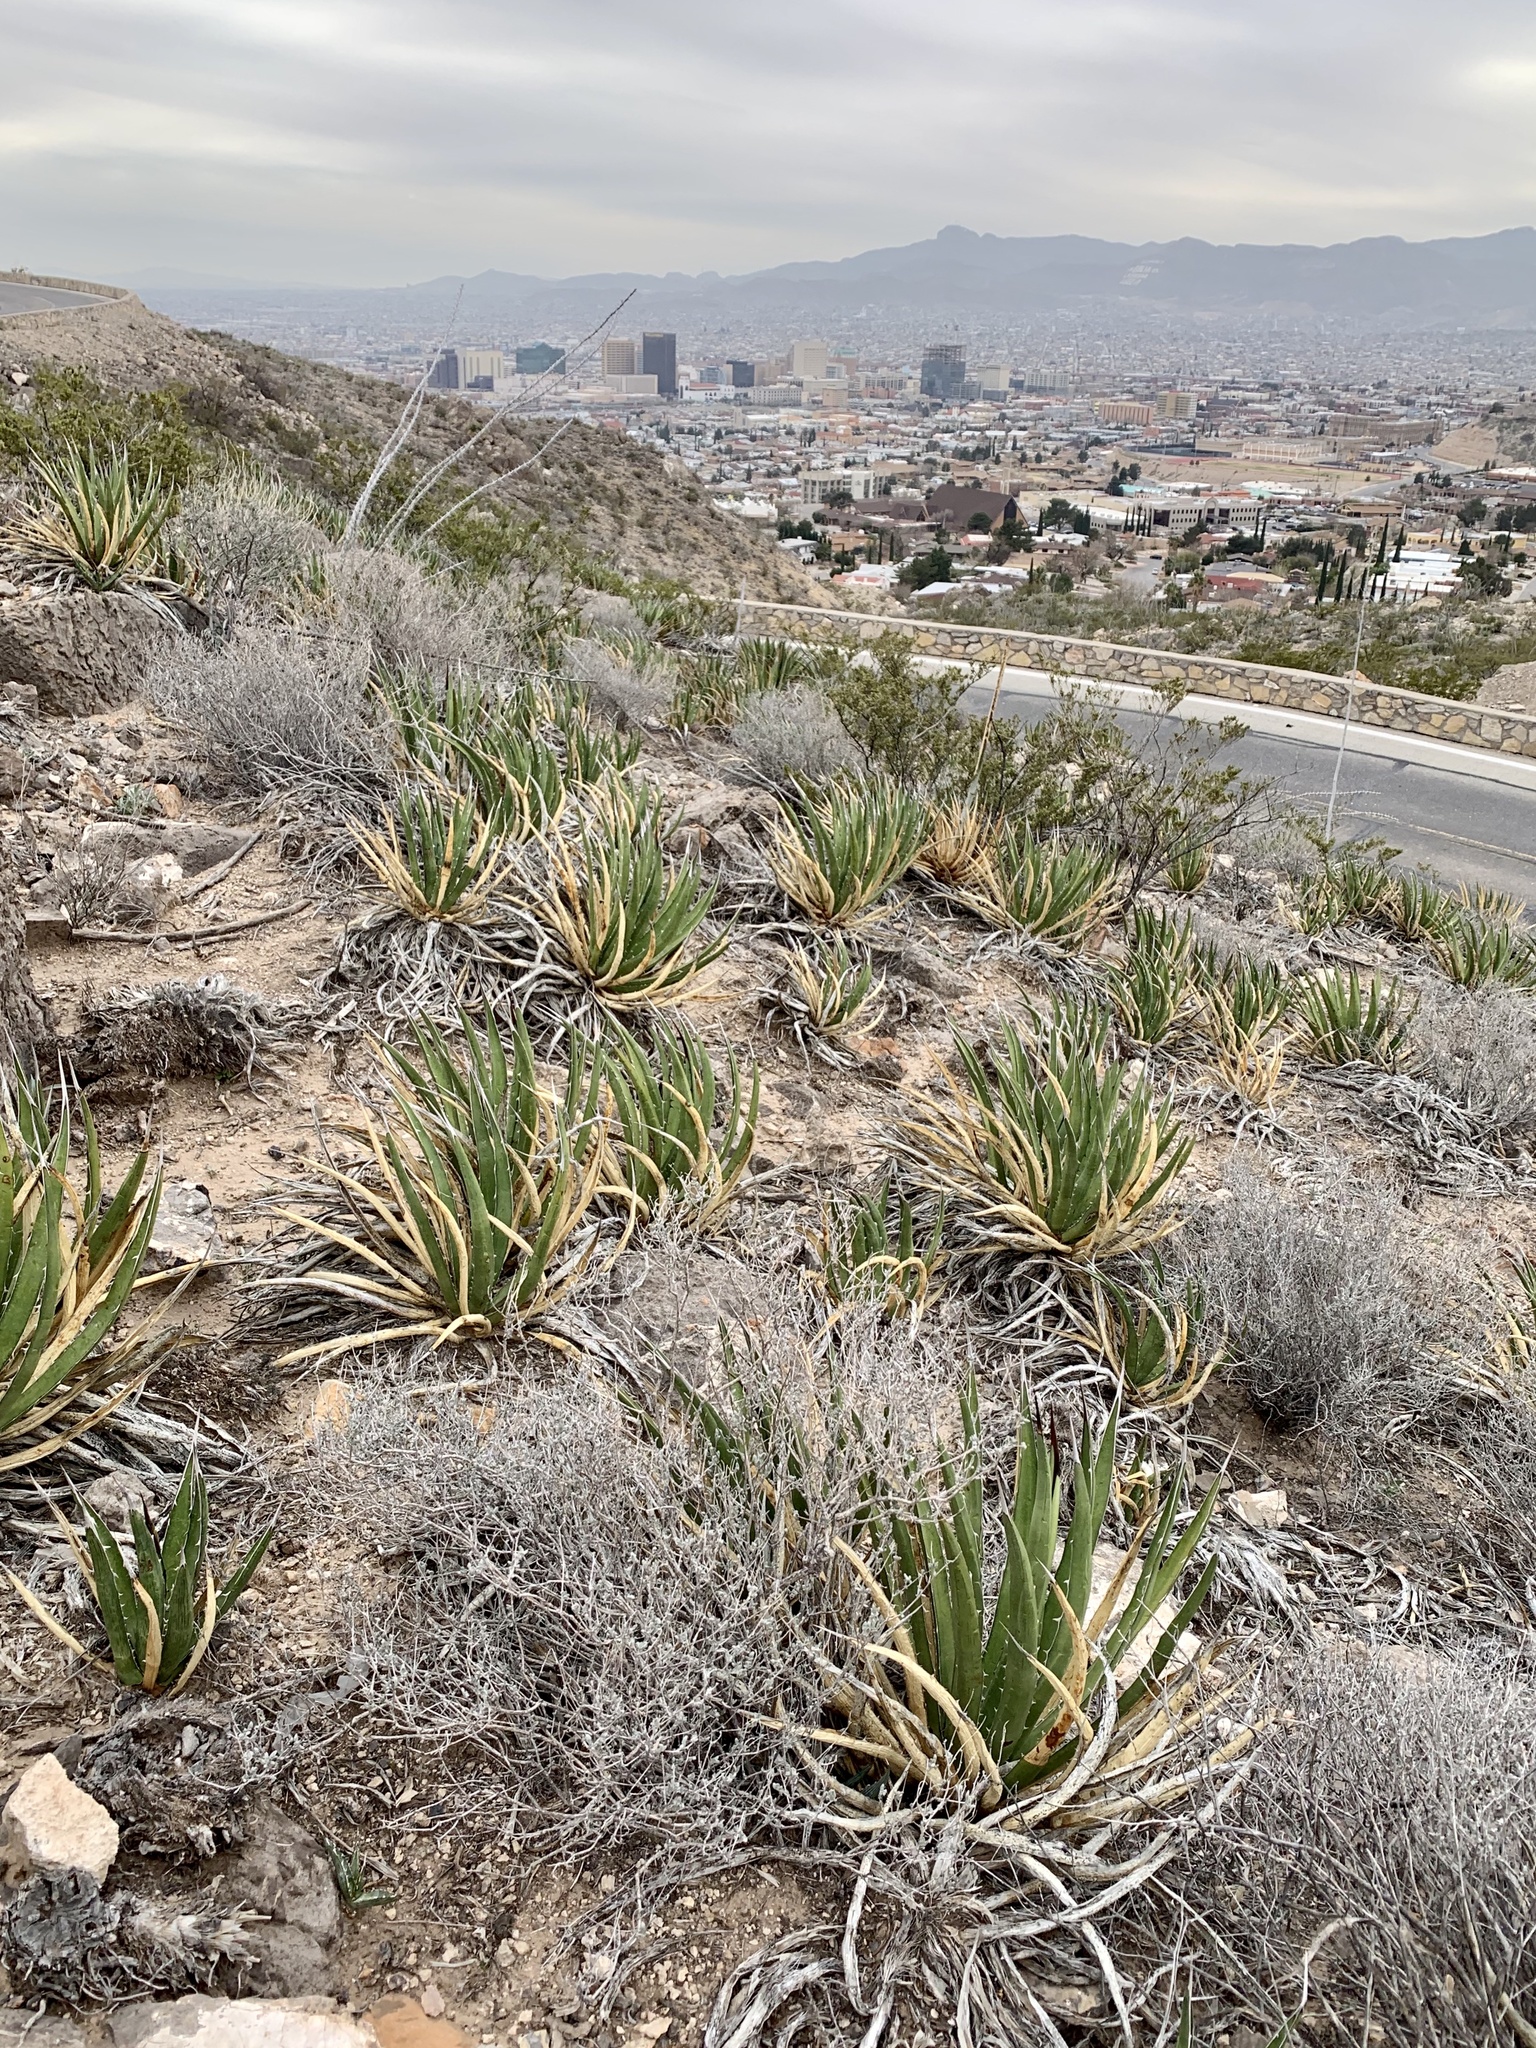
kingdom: Plantae
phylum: Tracheophyta
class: Liliopsida
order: Asparagales
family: Asparagaceae
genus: Agave
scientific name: Agave lechuguilla
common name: Lecheguilla agave
